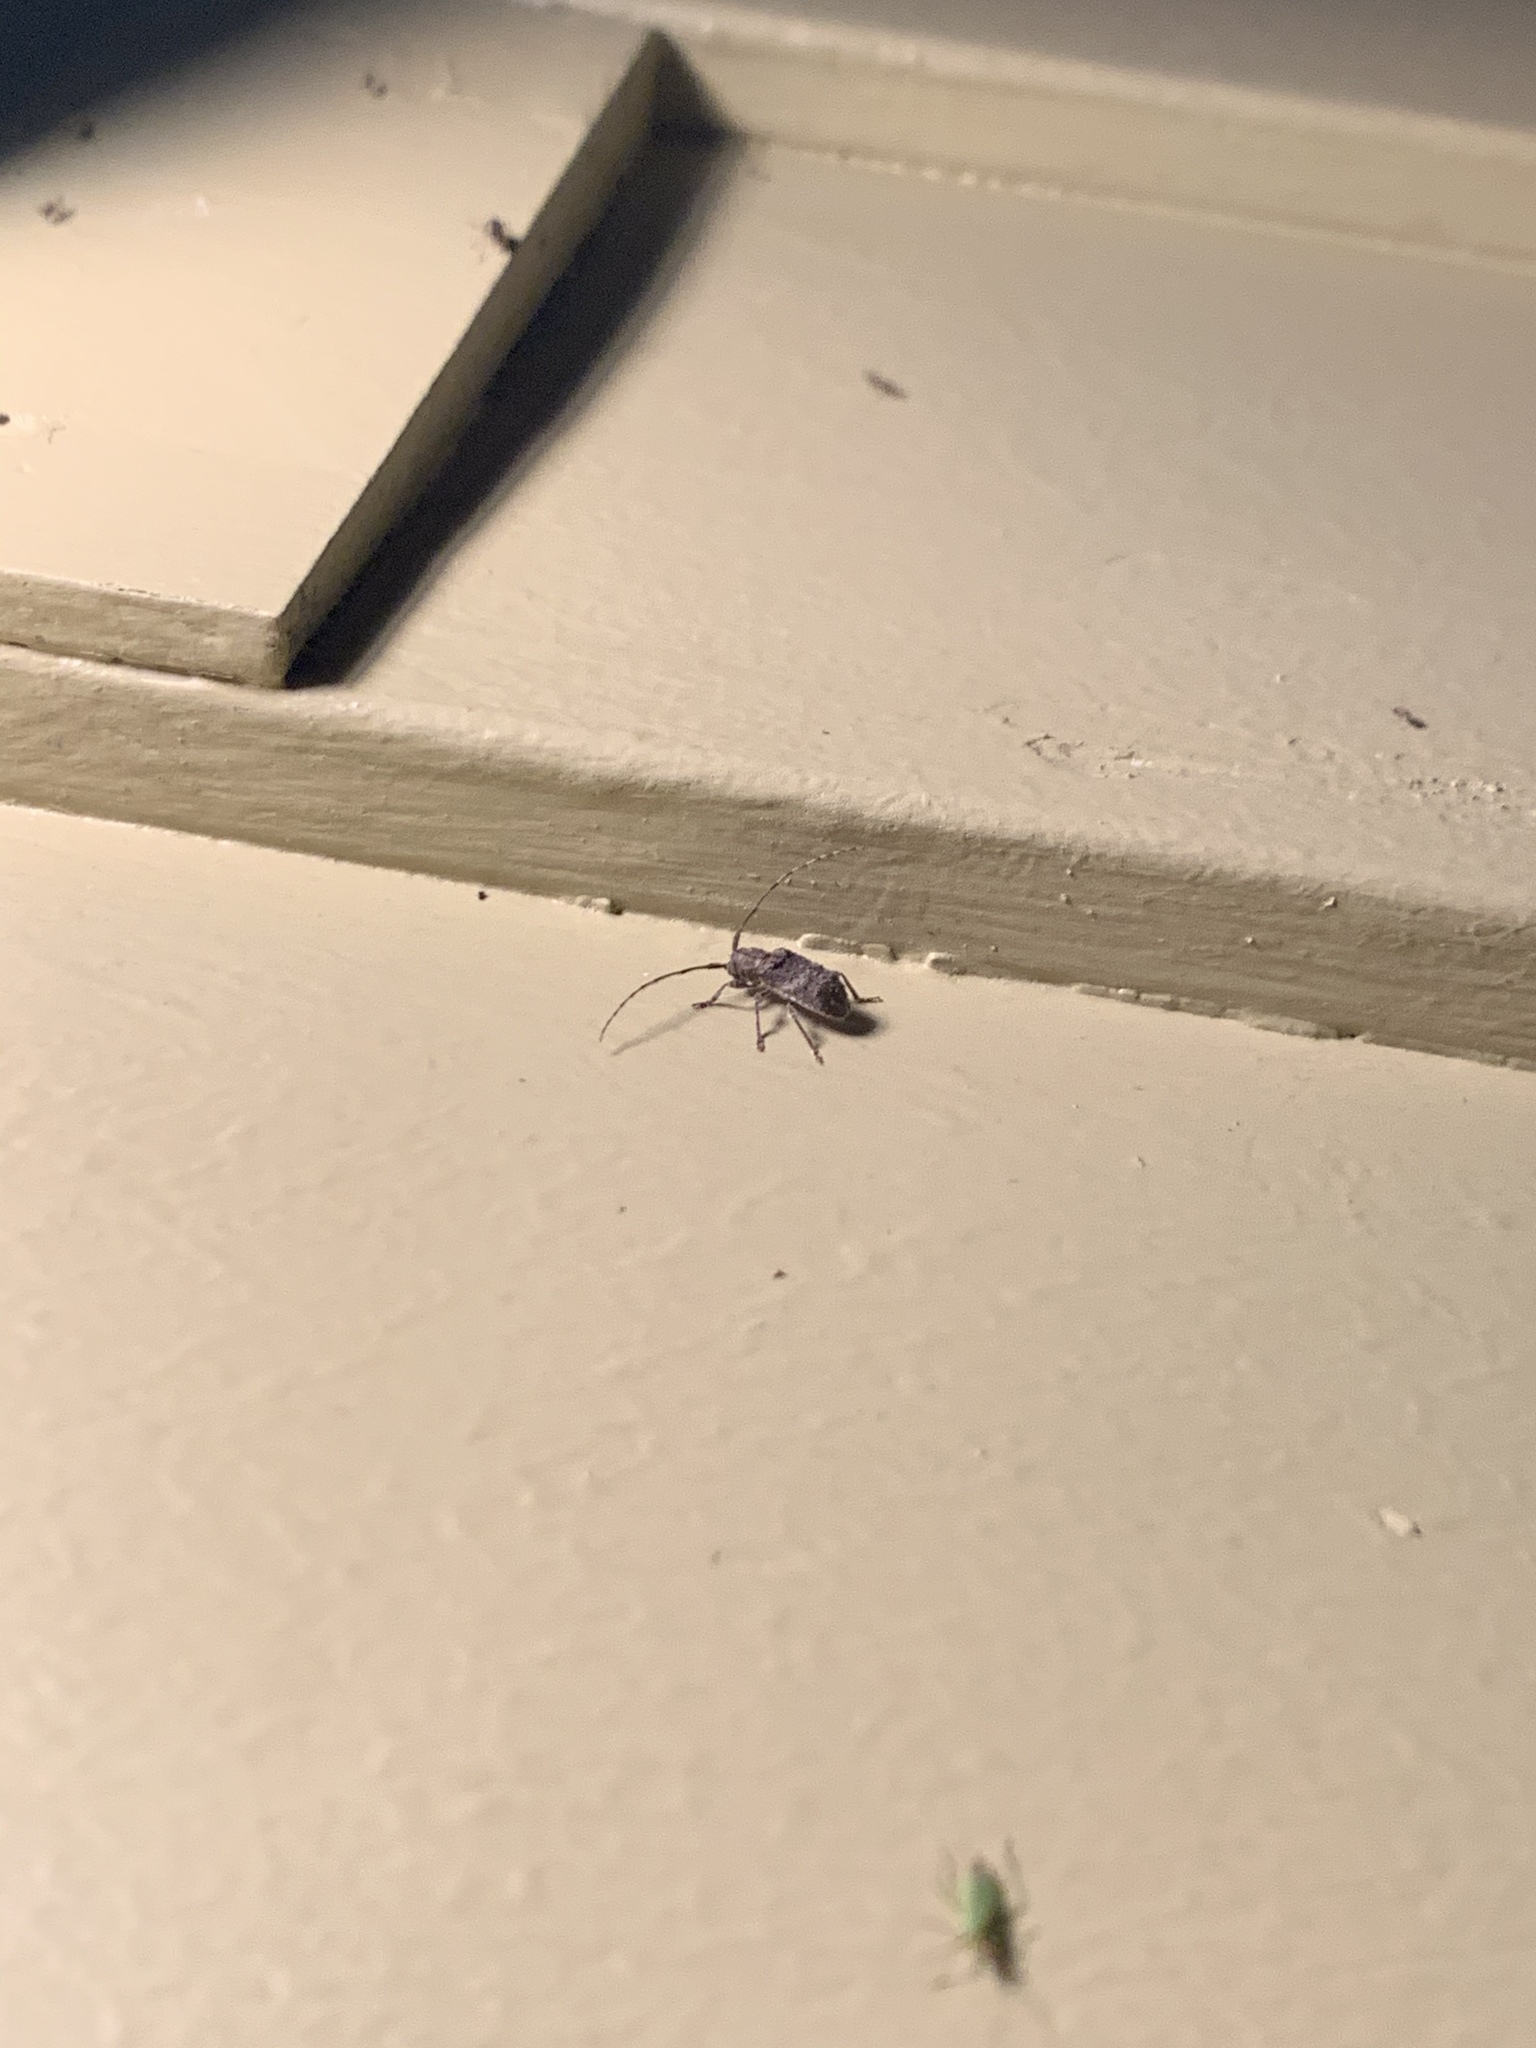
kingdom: Animalia
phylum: Arthropoda
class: Insecta
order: Coleoptera
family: Cerambycidae
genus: Ecyrus
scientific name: Ecyrus dasycerus
